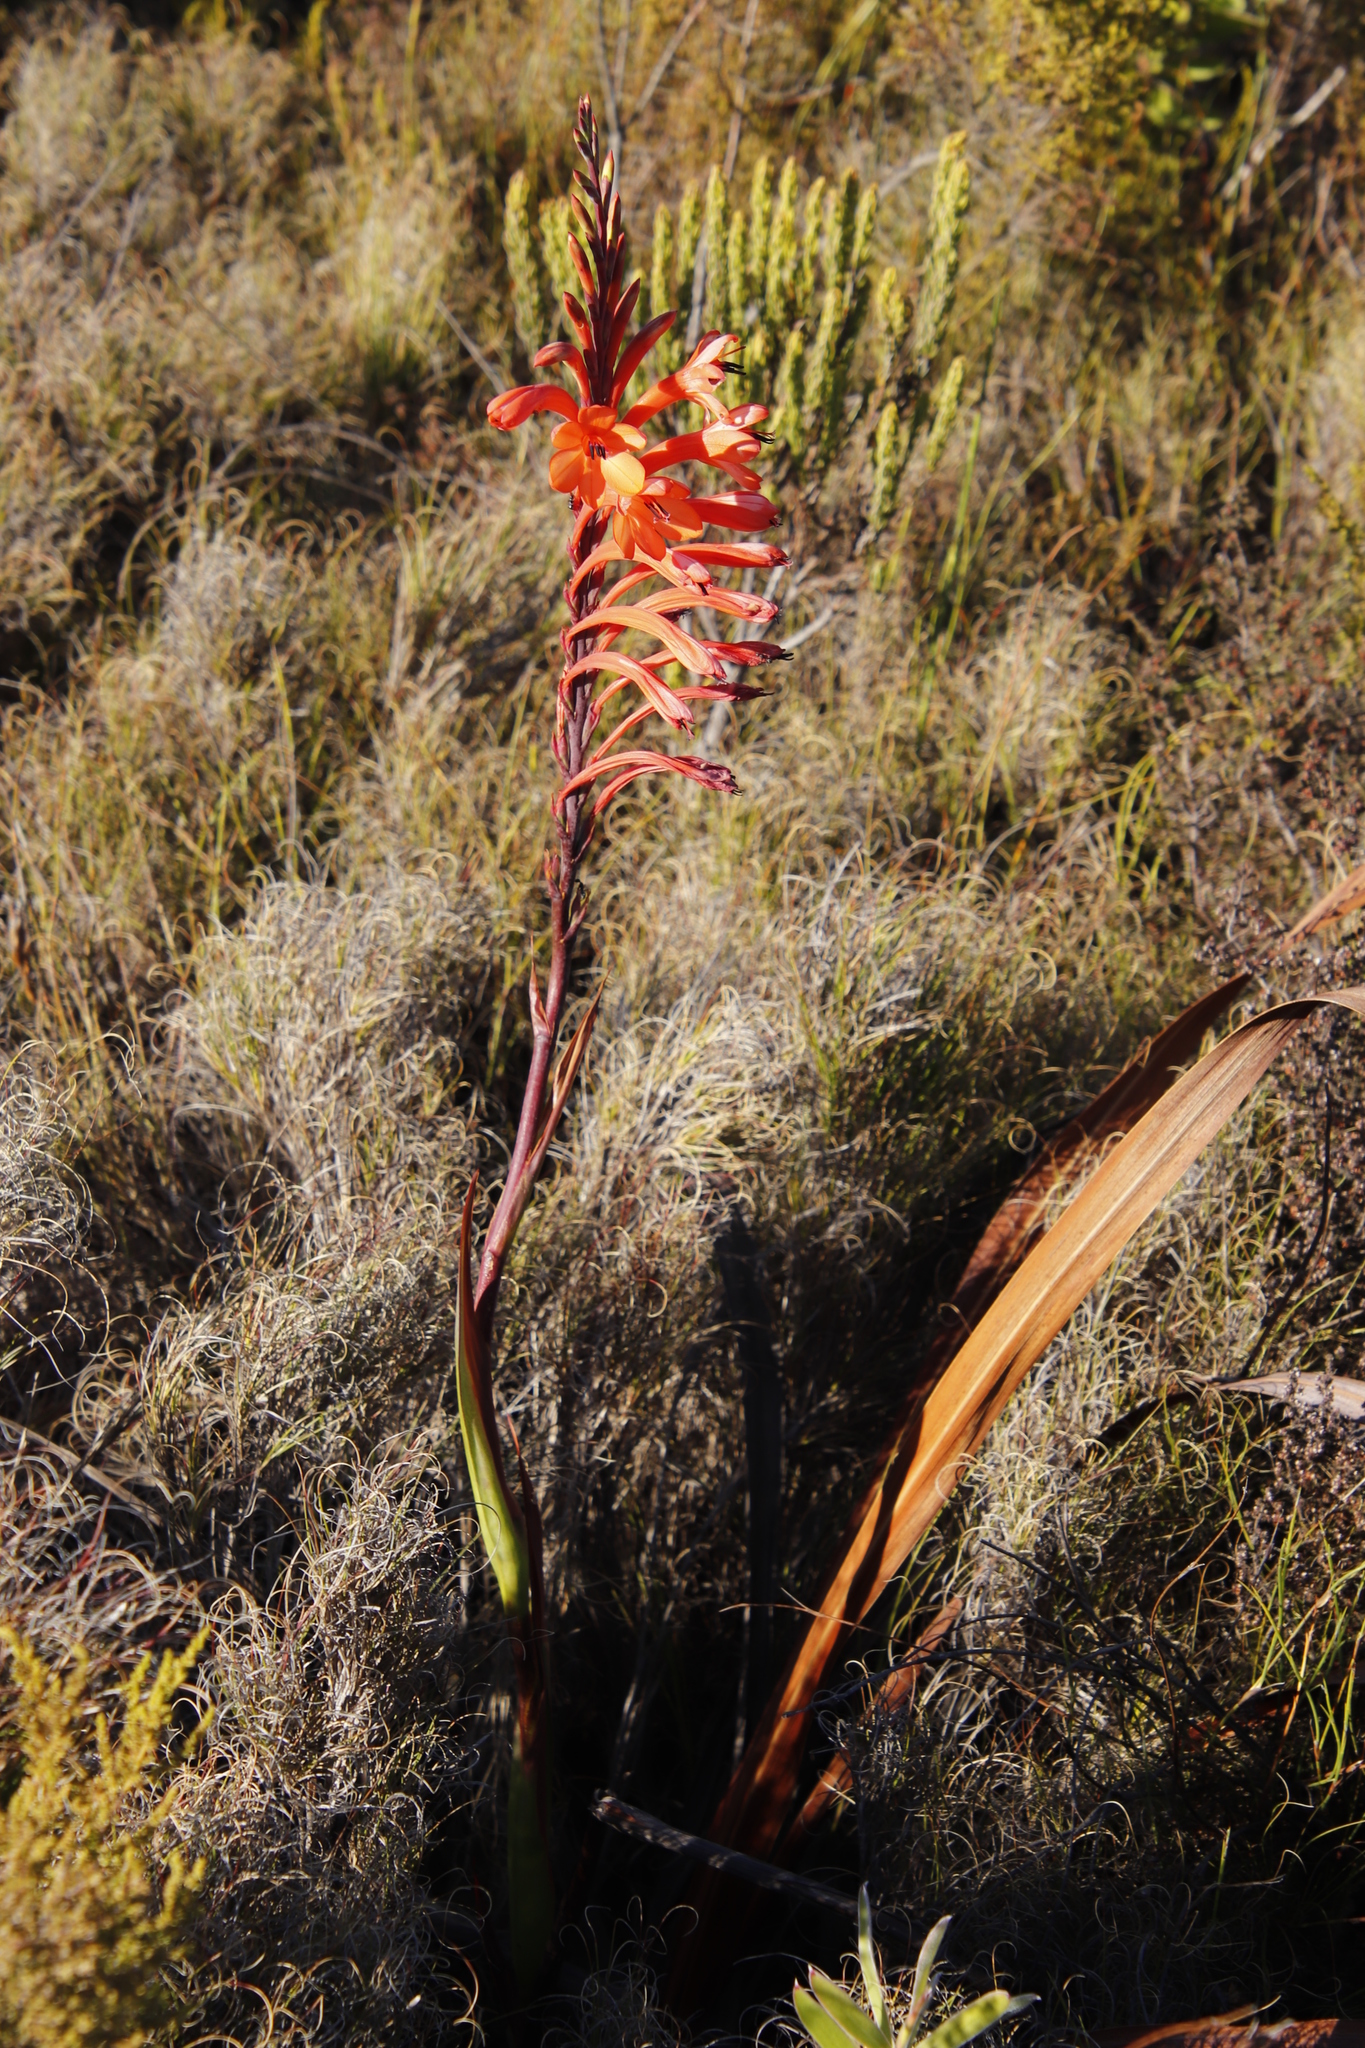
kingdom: Plantae
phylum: Tracheophyta
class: Liliopsida
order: Asparagales
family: Iridaceae
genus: Watsonia
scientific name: Watsonia tabularis
